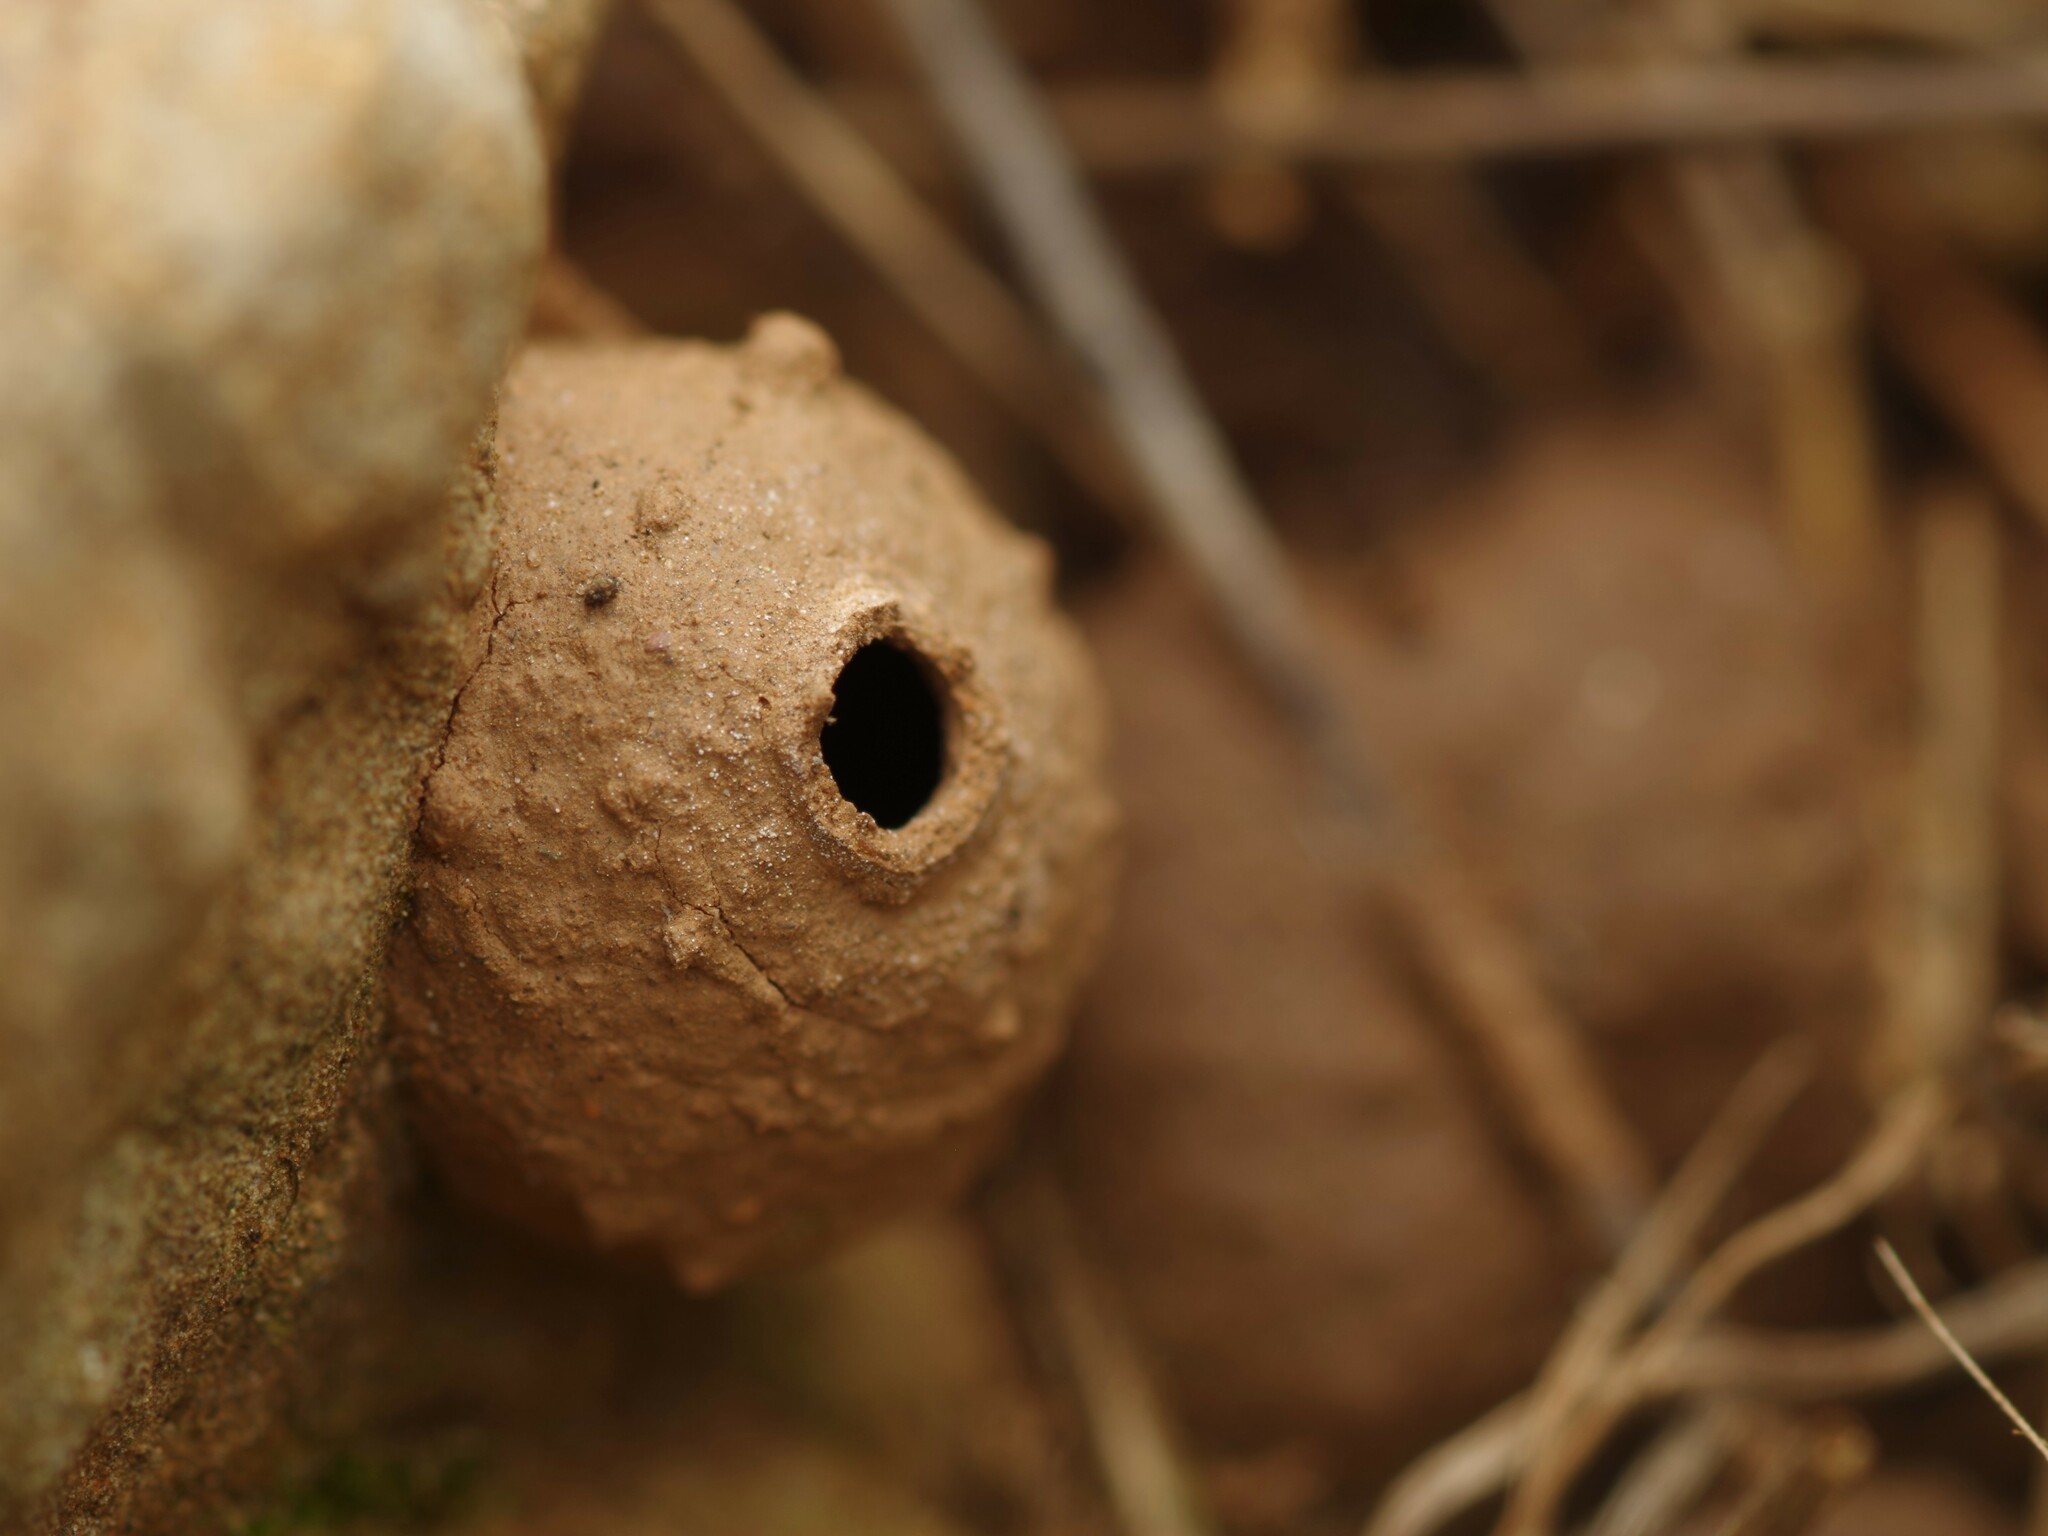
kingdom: Animalia
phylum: Arthropoda
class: Insecta
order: Hymenoptera
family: Eumenidae
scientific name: Eumenidae
